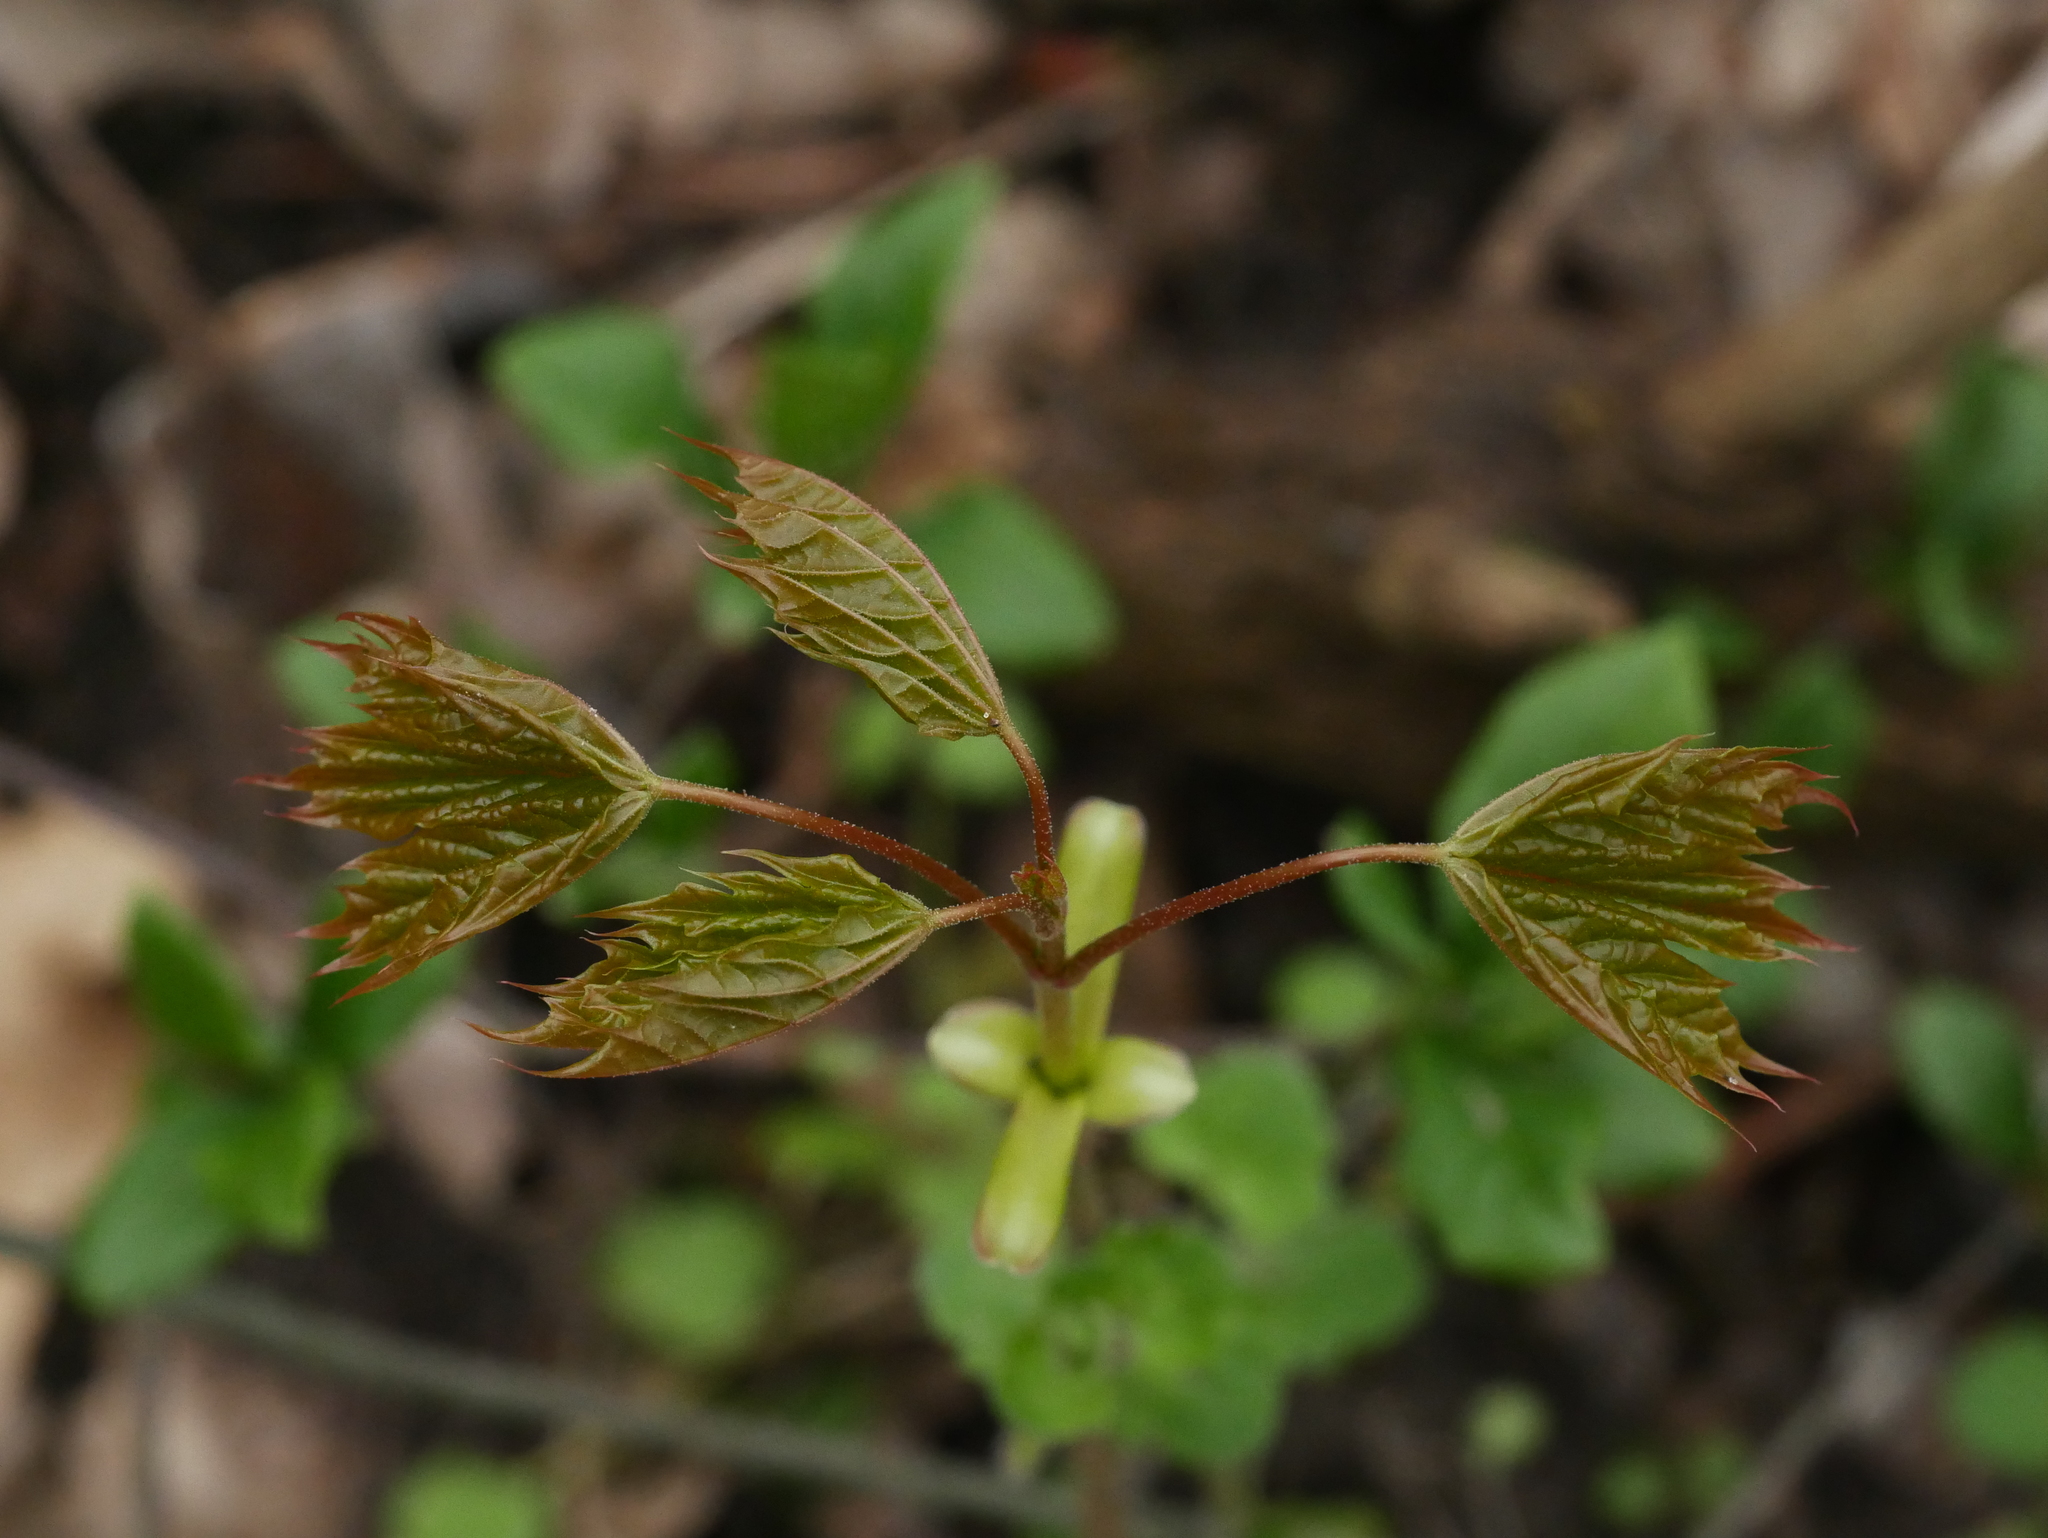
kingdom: Plantae
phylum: Tracheophyta
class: Magnoliopsida
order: Sapindales
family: Sapindaceae
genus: Acer
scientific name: Acer platanoides
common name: Norway maple
